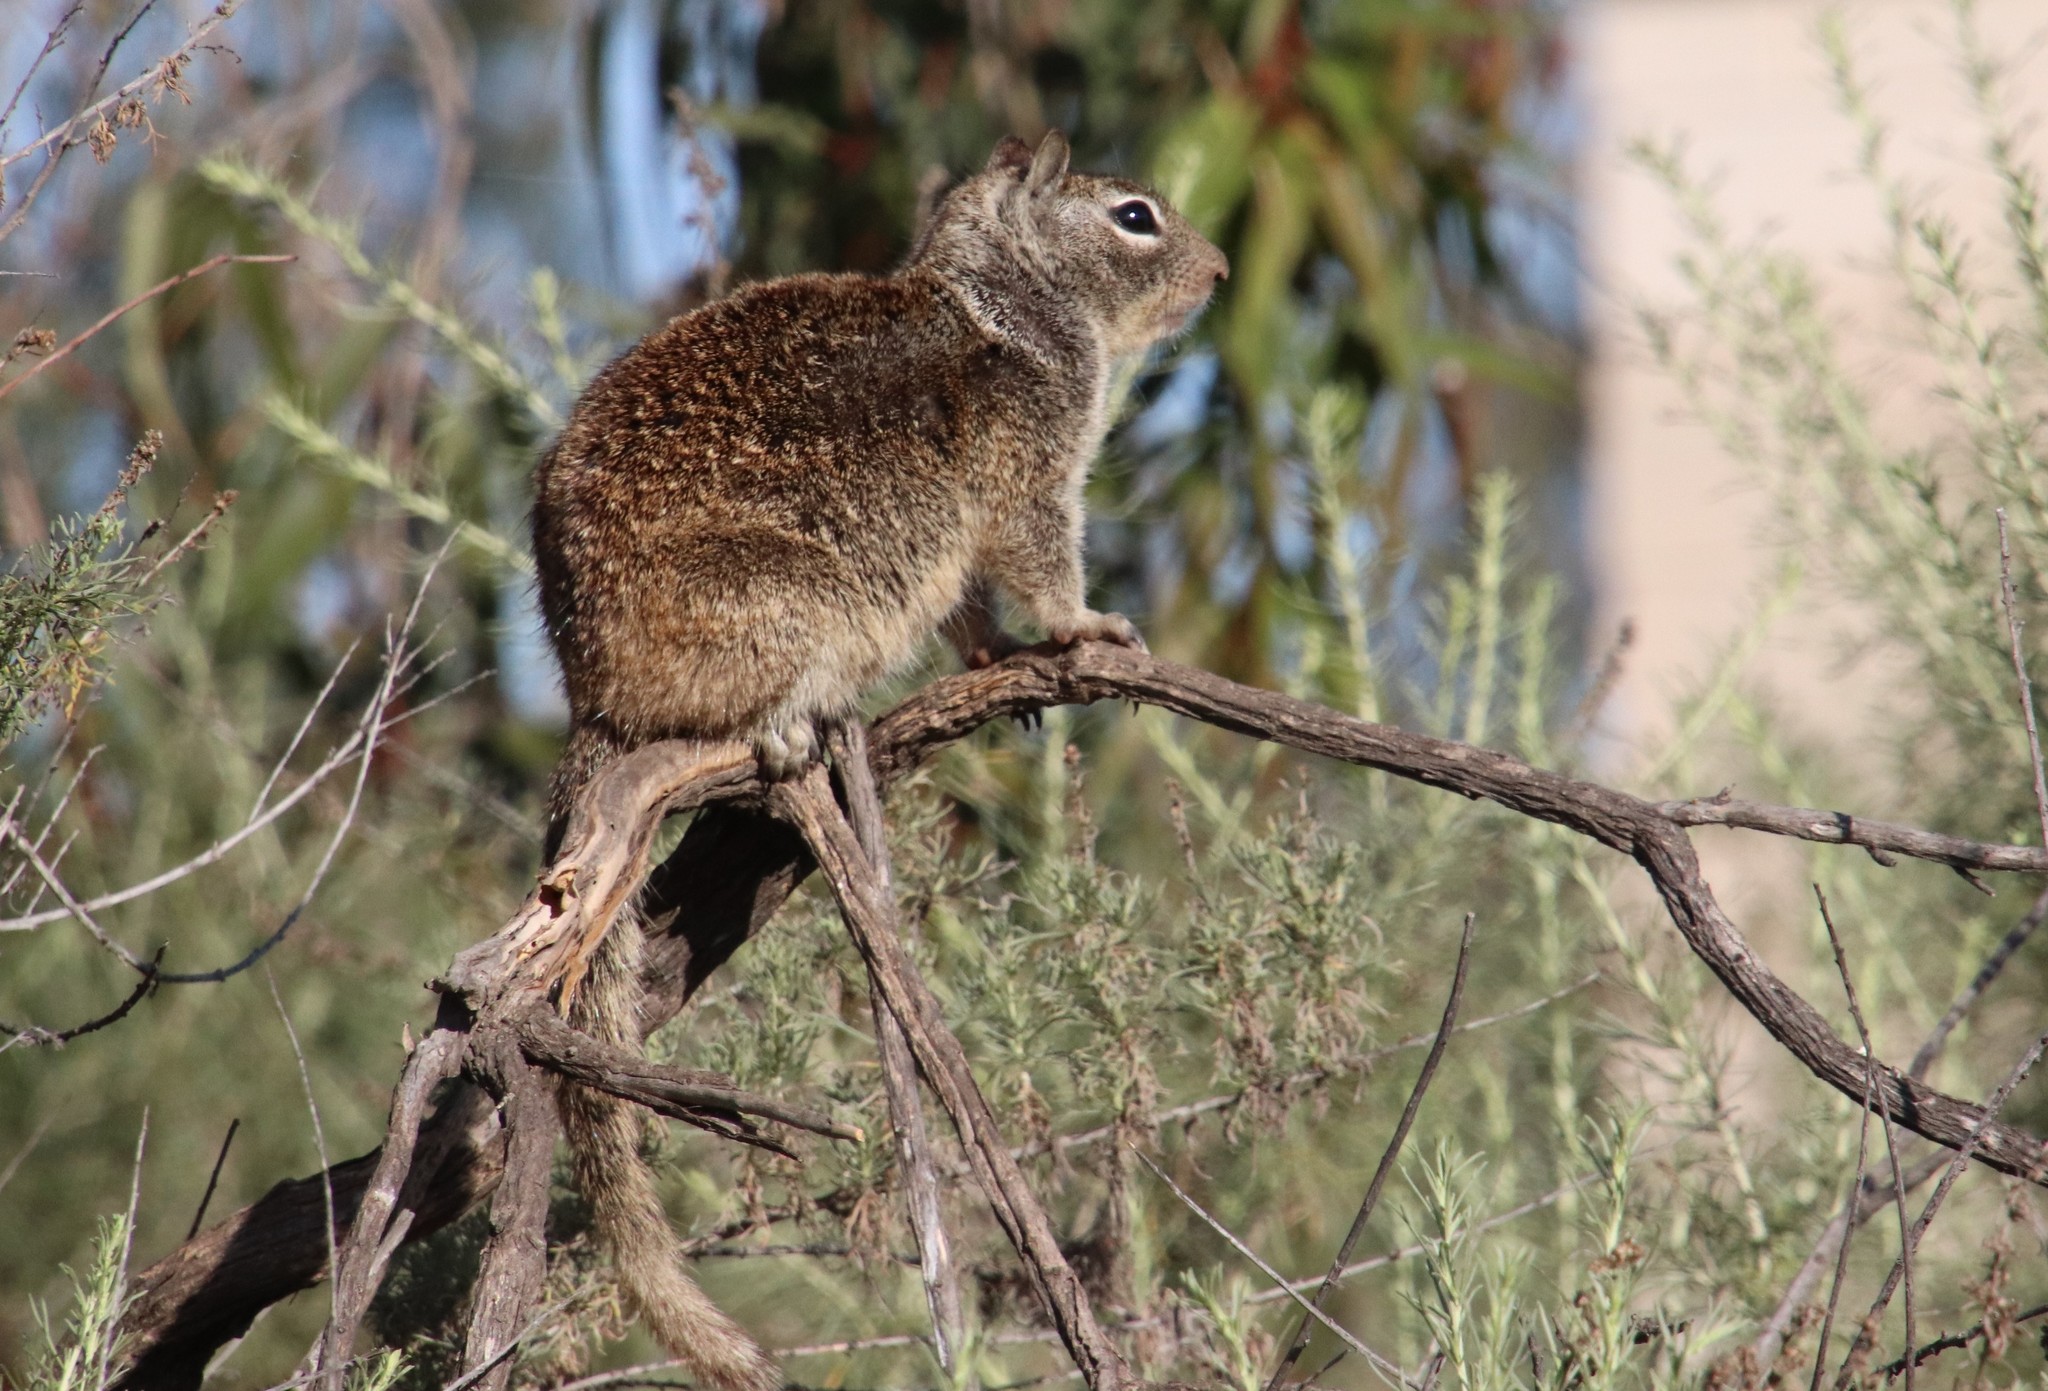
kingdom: Animalia
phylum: Chordata
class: Mammalia
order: Rodentia
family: Sciuridae
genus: Otospermophilus
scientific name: Otospermophilus beecheyi
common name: California ground squirrel
